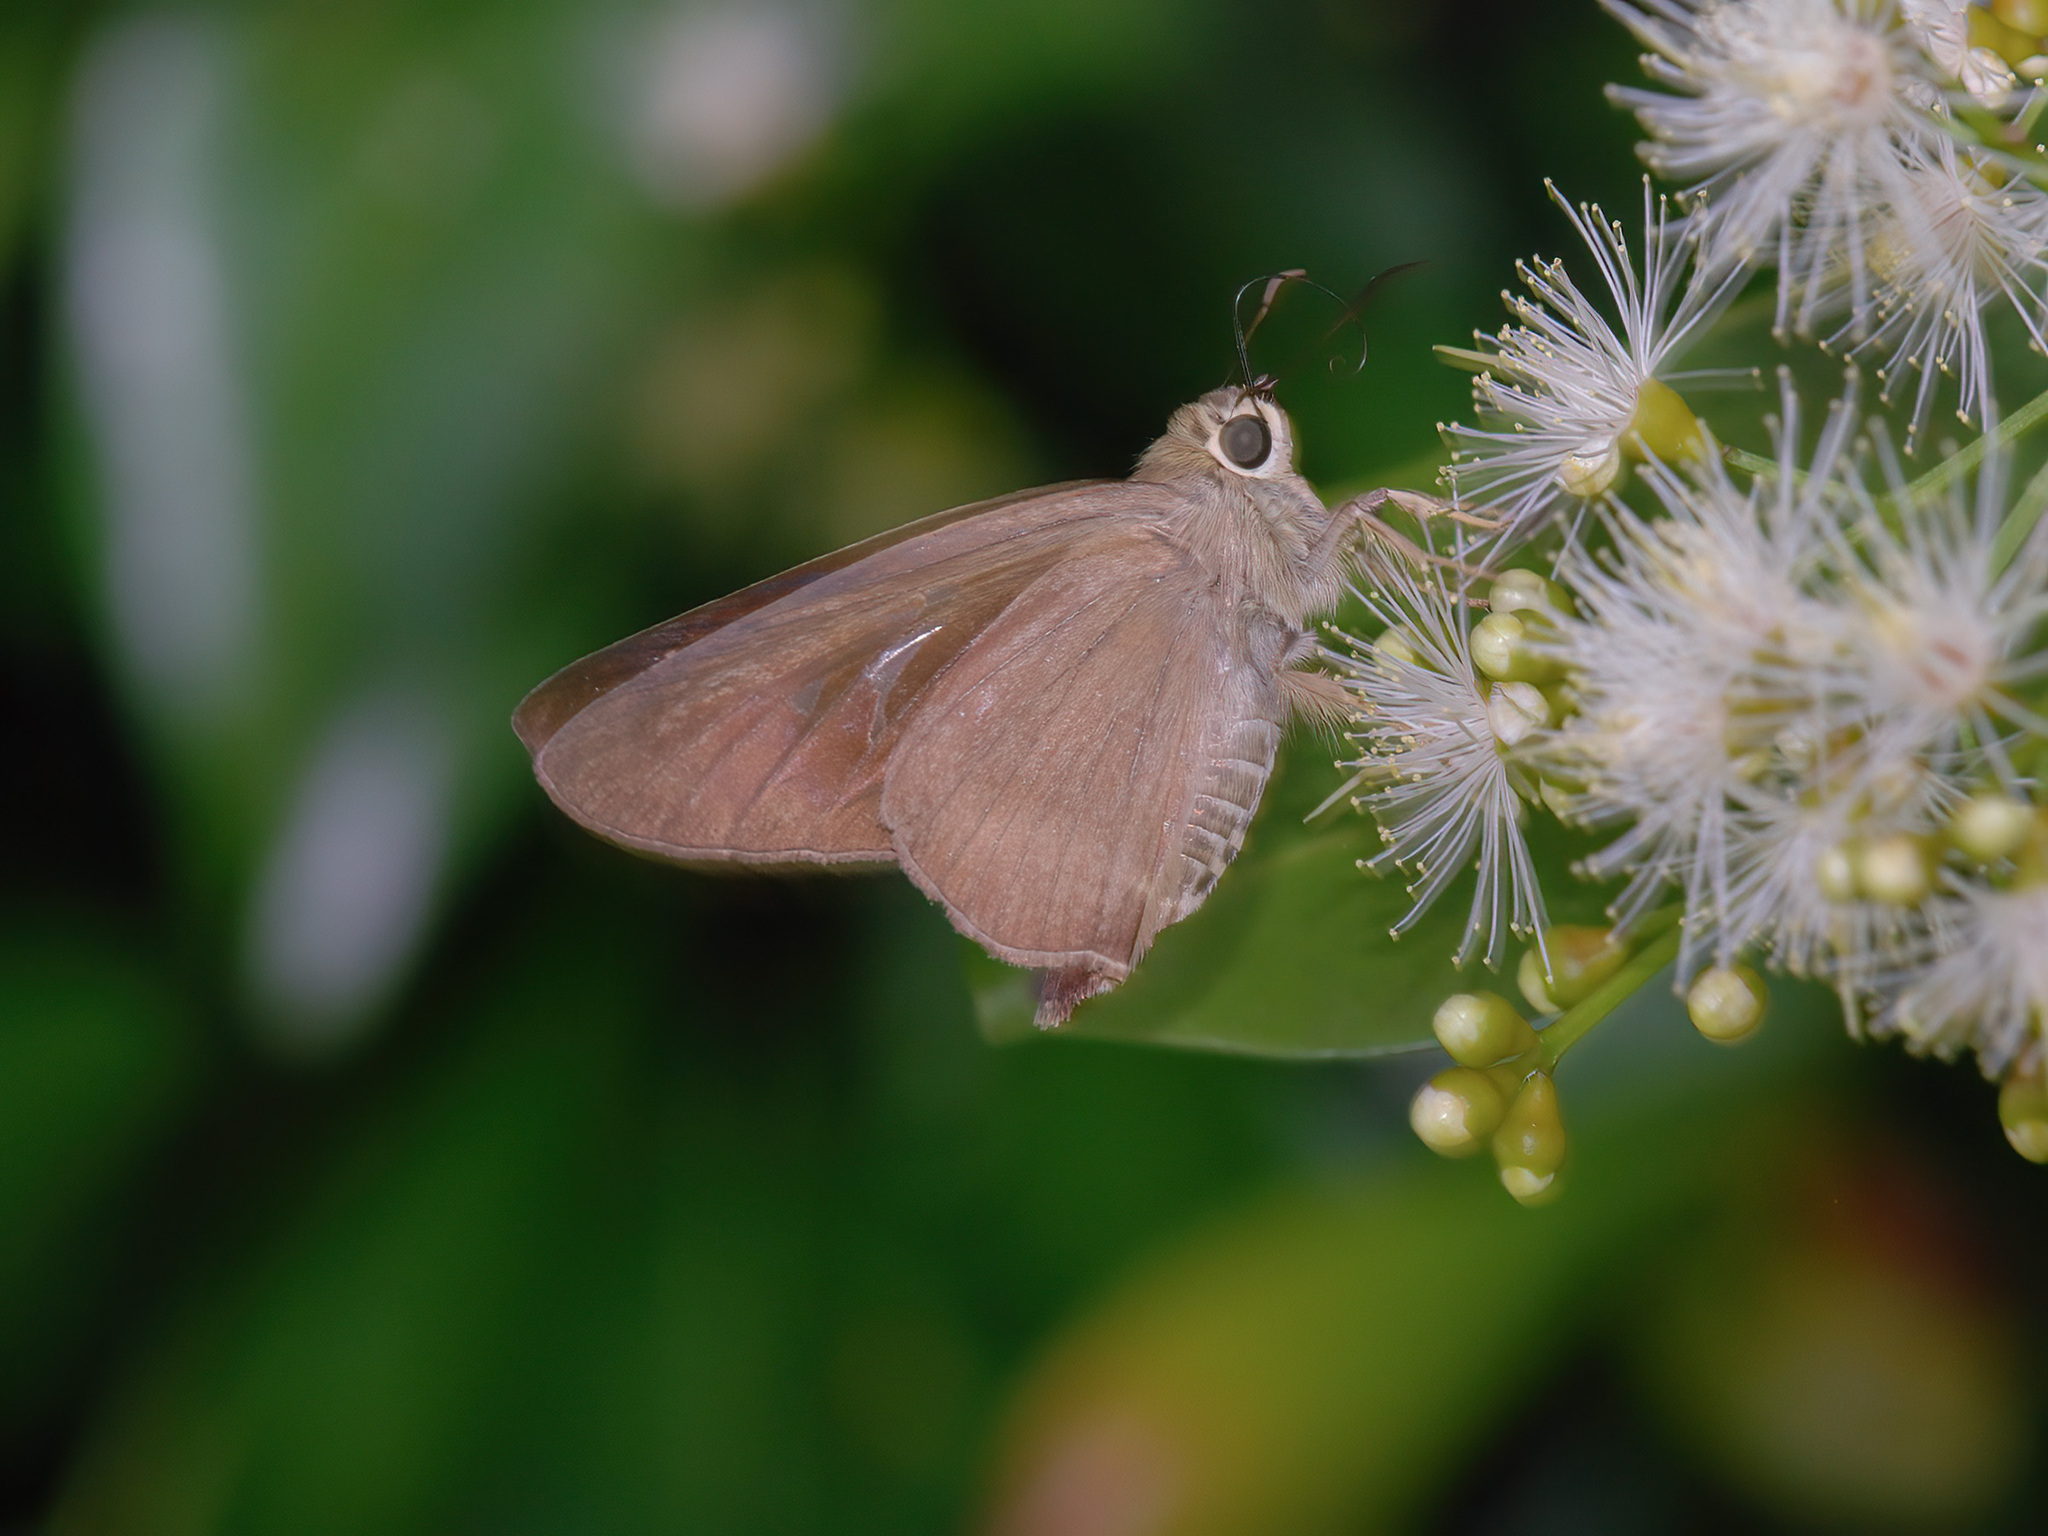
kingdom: Animalia
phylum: Arthropoda
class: Insecta
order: Lepidoptera
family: Hesperiidae
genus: Badamia
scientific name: Badamia exclamationis
